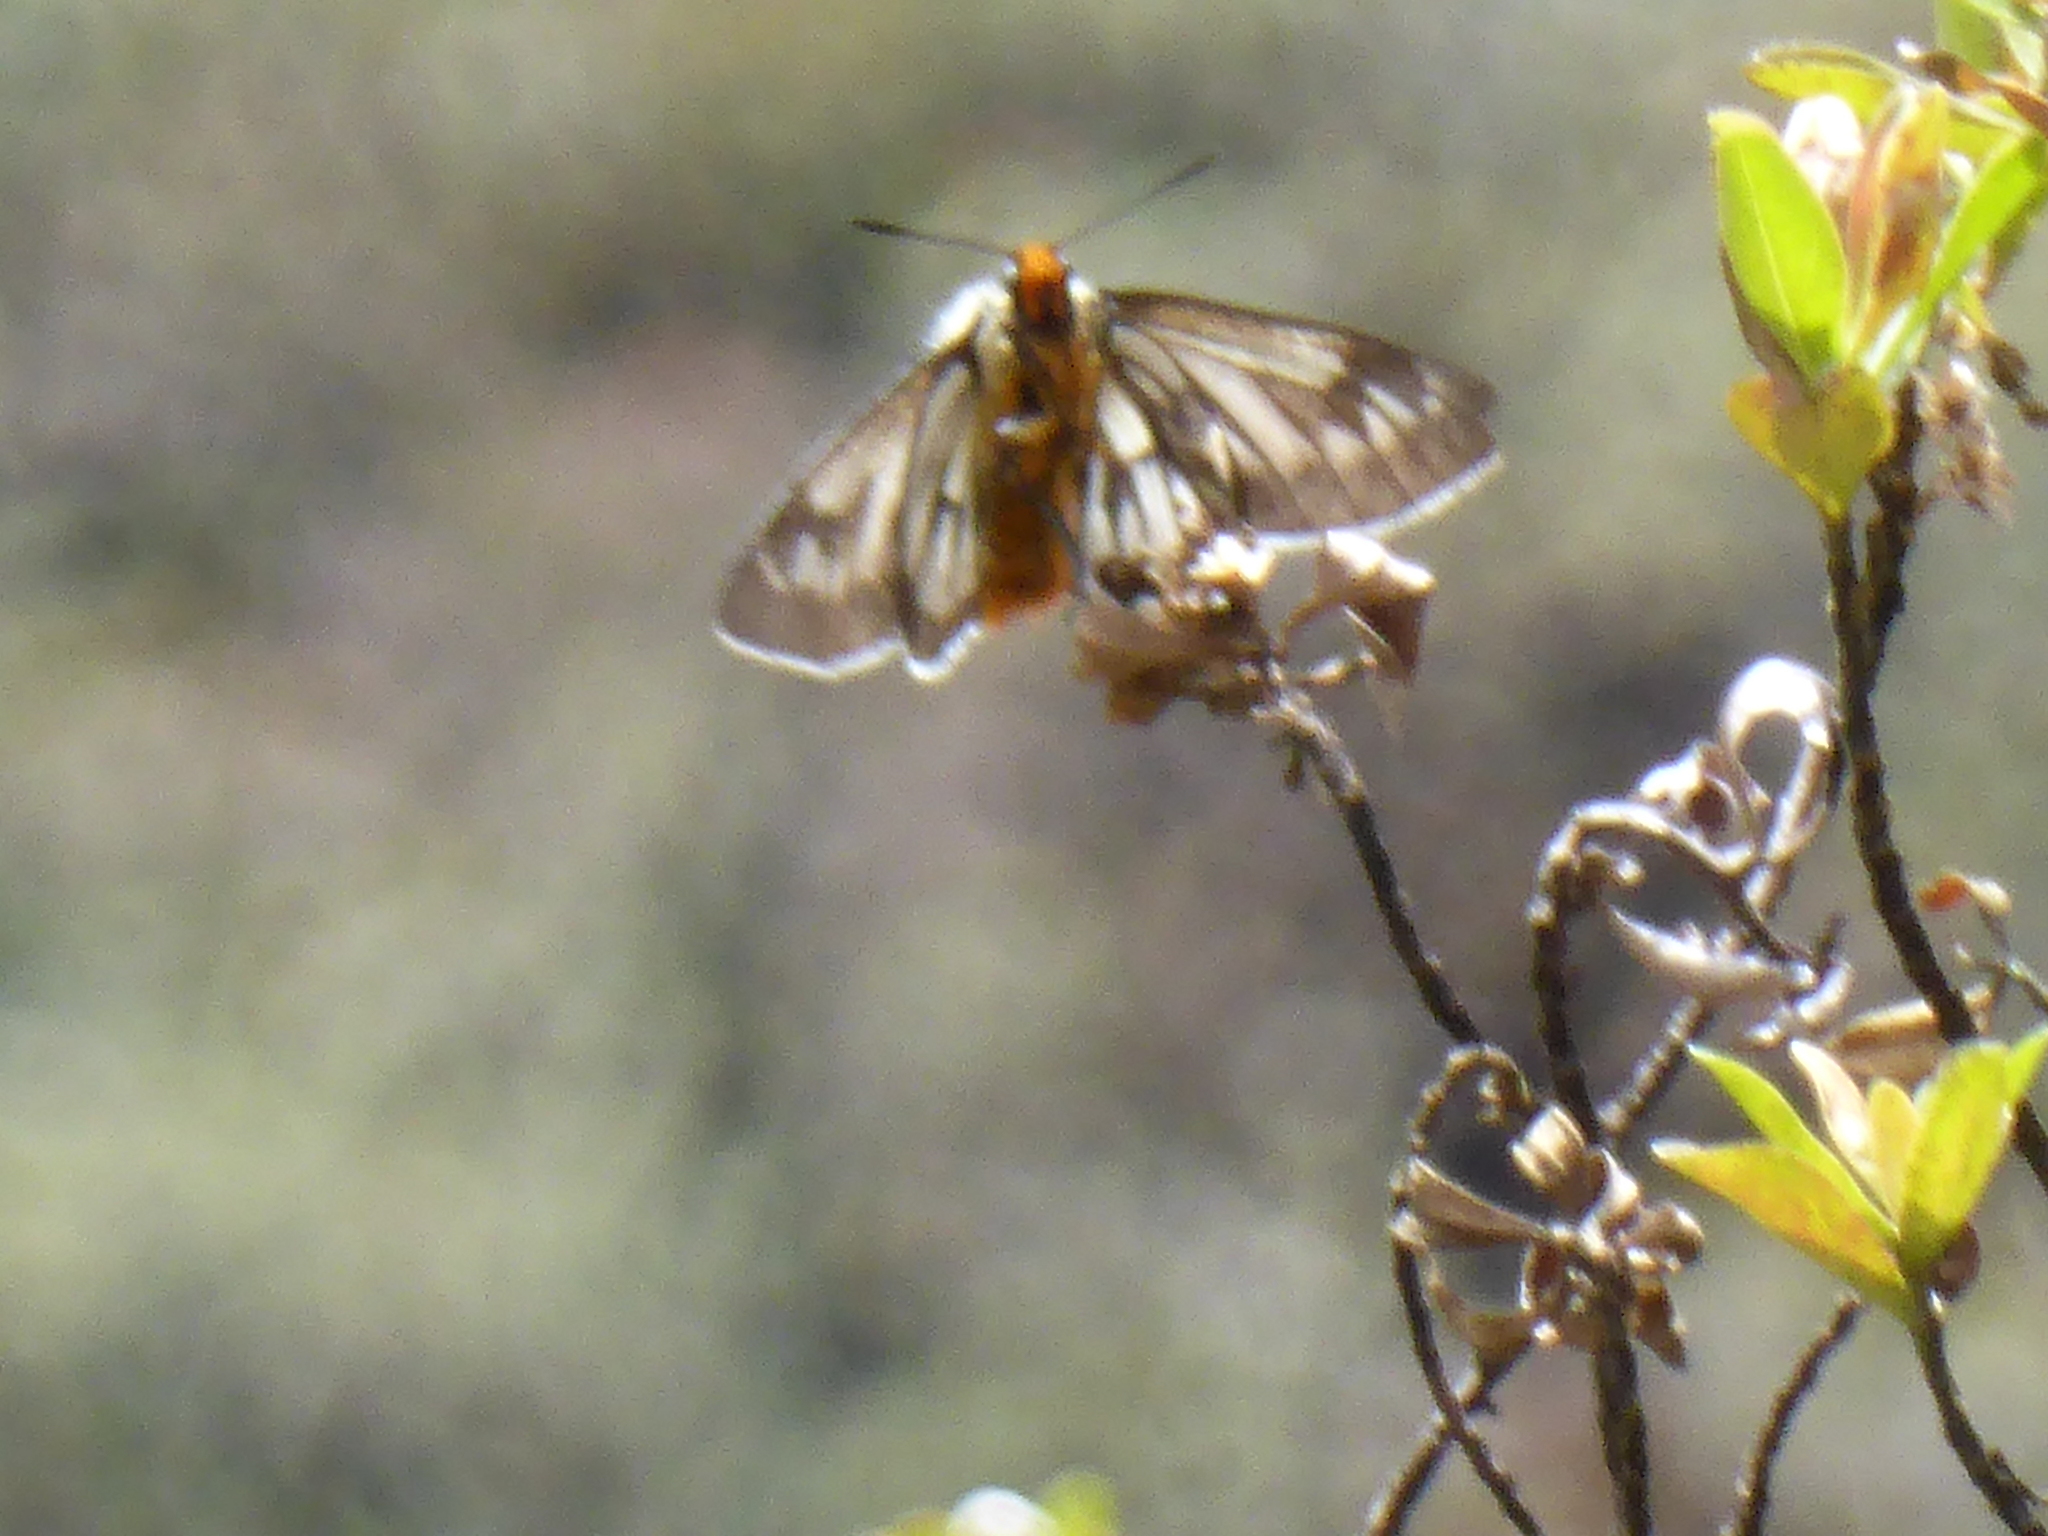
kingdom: Animalia
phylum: Arthropoda
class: Insecta
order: Lepidoptera
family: Hesperiidae
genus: Metardaris
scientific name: Metardaris cosinga
